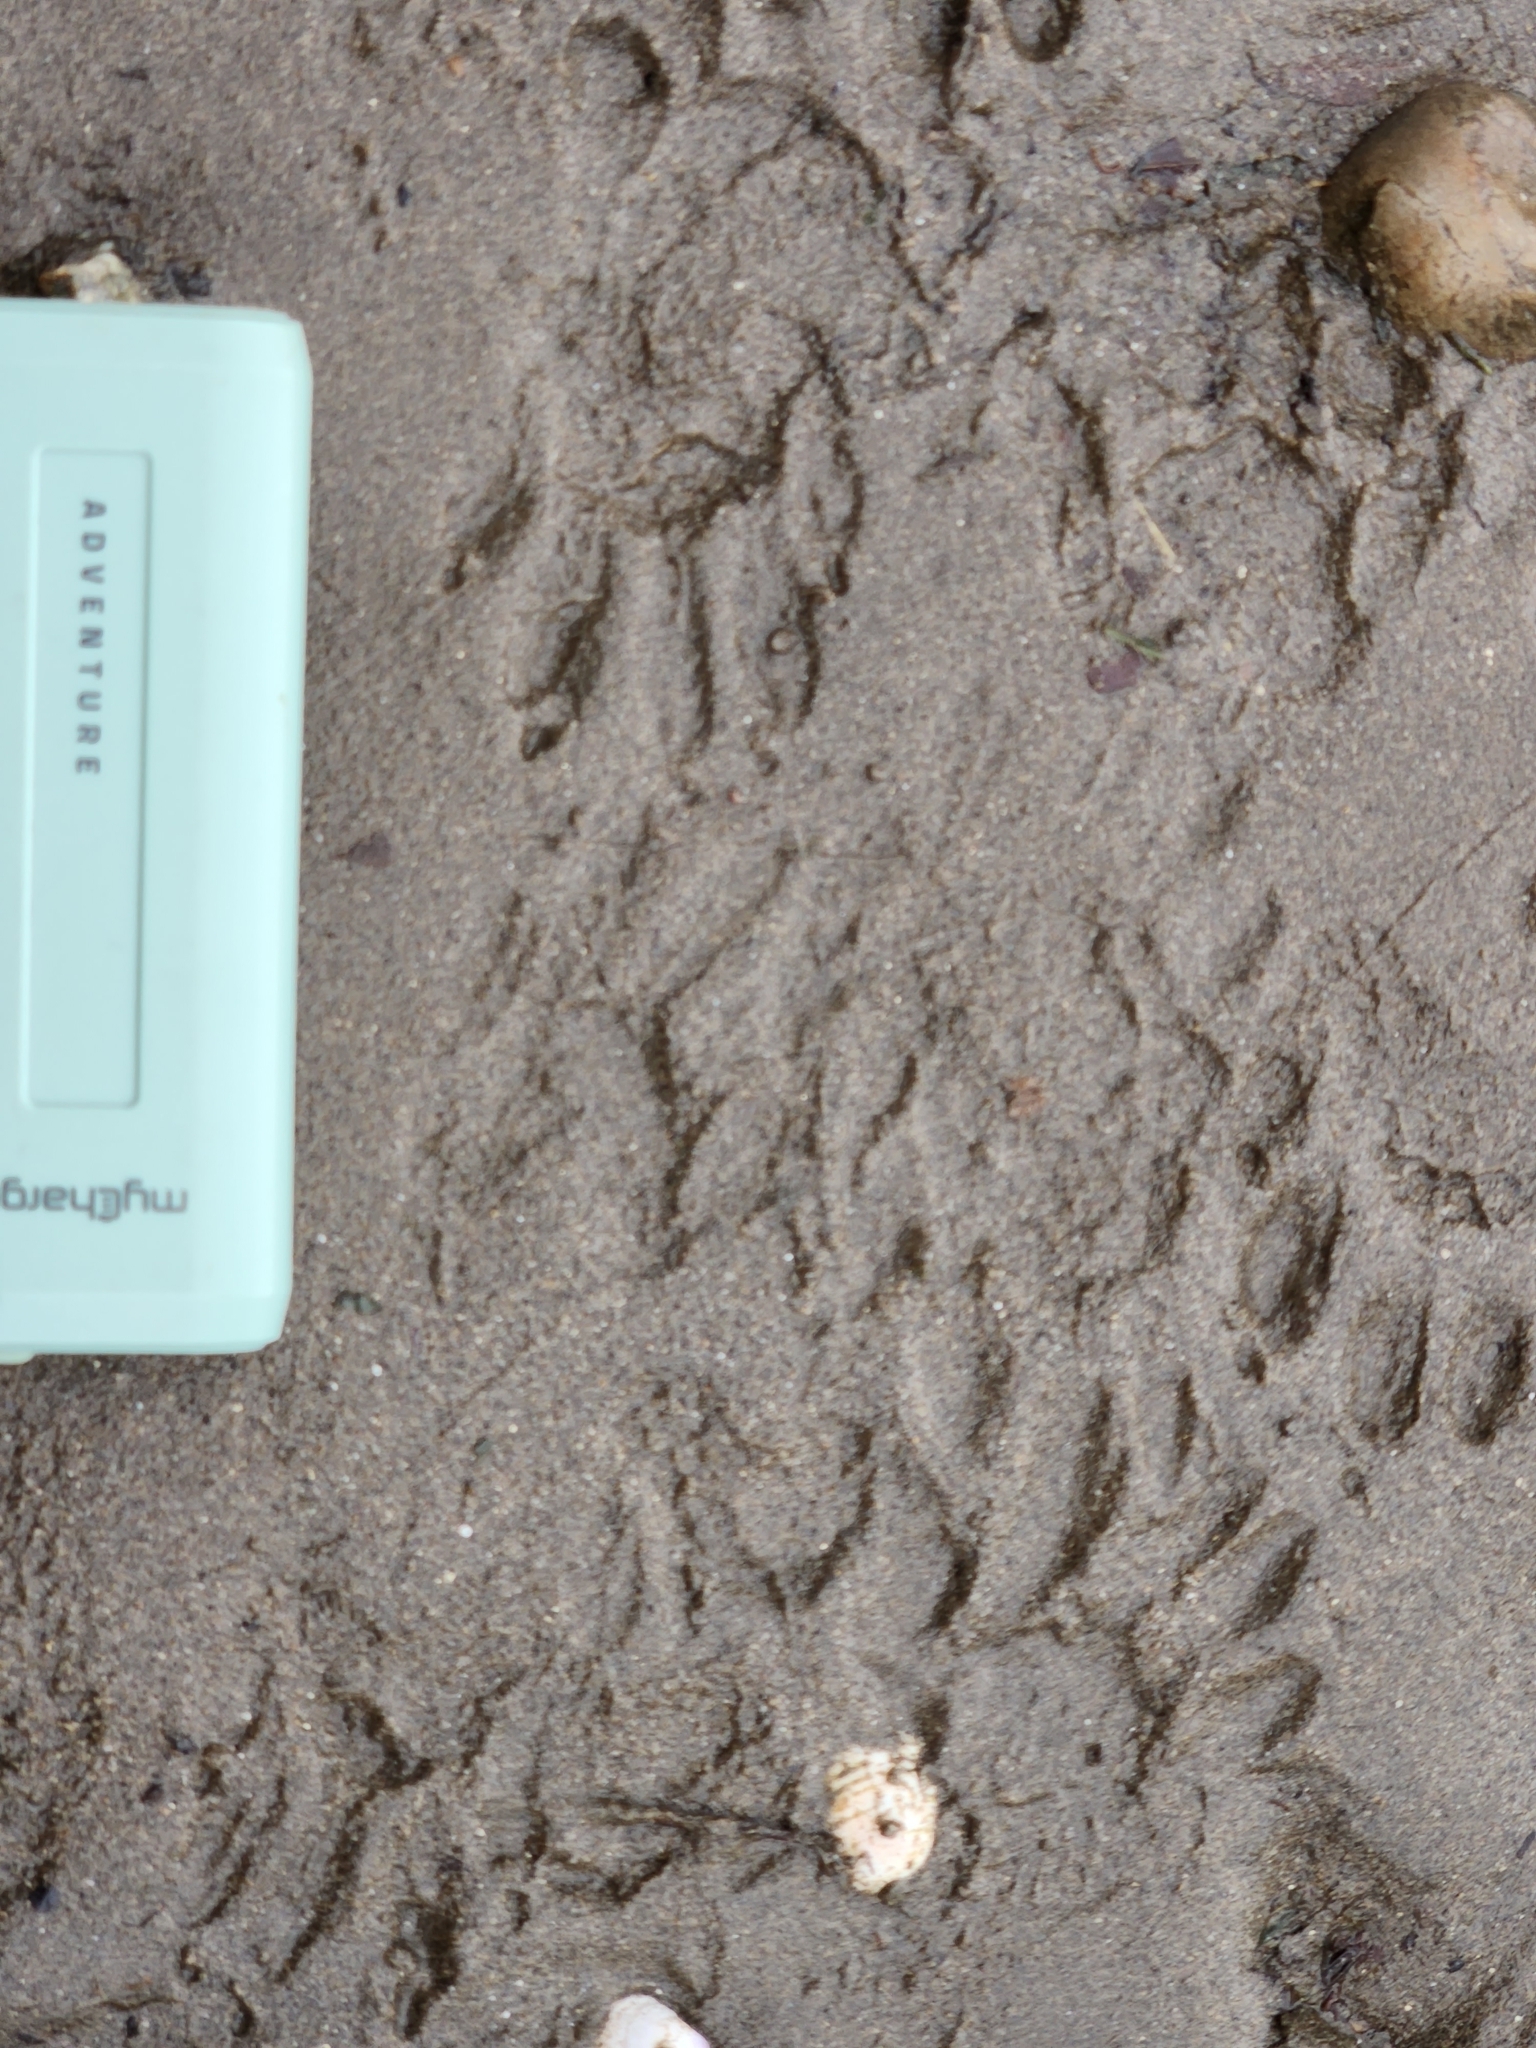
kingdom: Animalia
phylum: Chordata
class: Mammalia
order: Carnivora
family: Procyonidae
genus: Procyon
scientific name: Procyon lotor
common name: Raccoon
